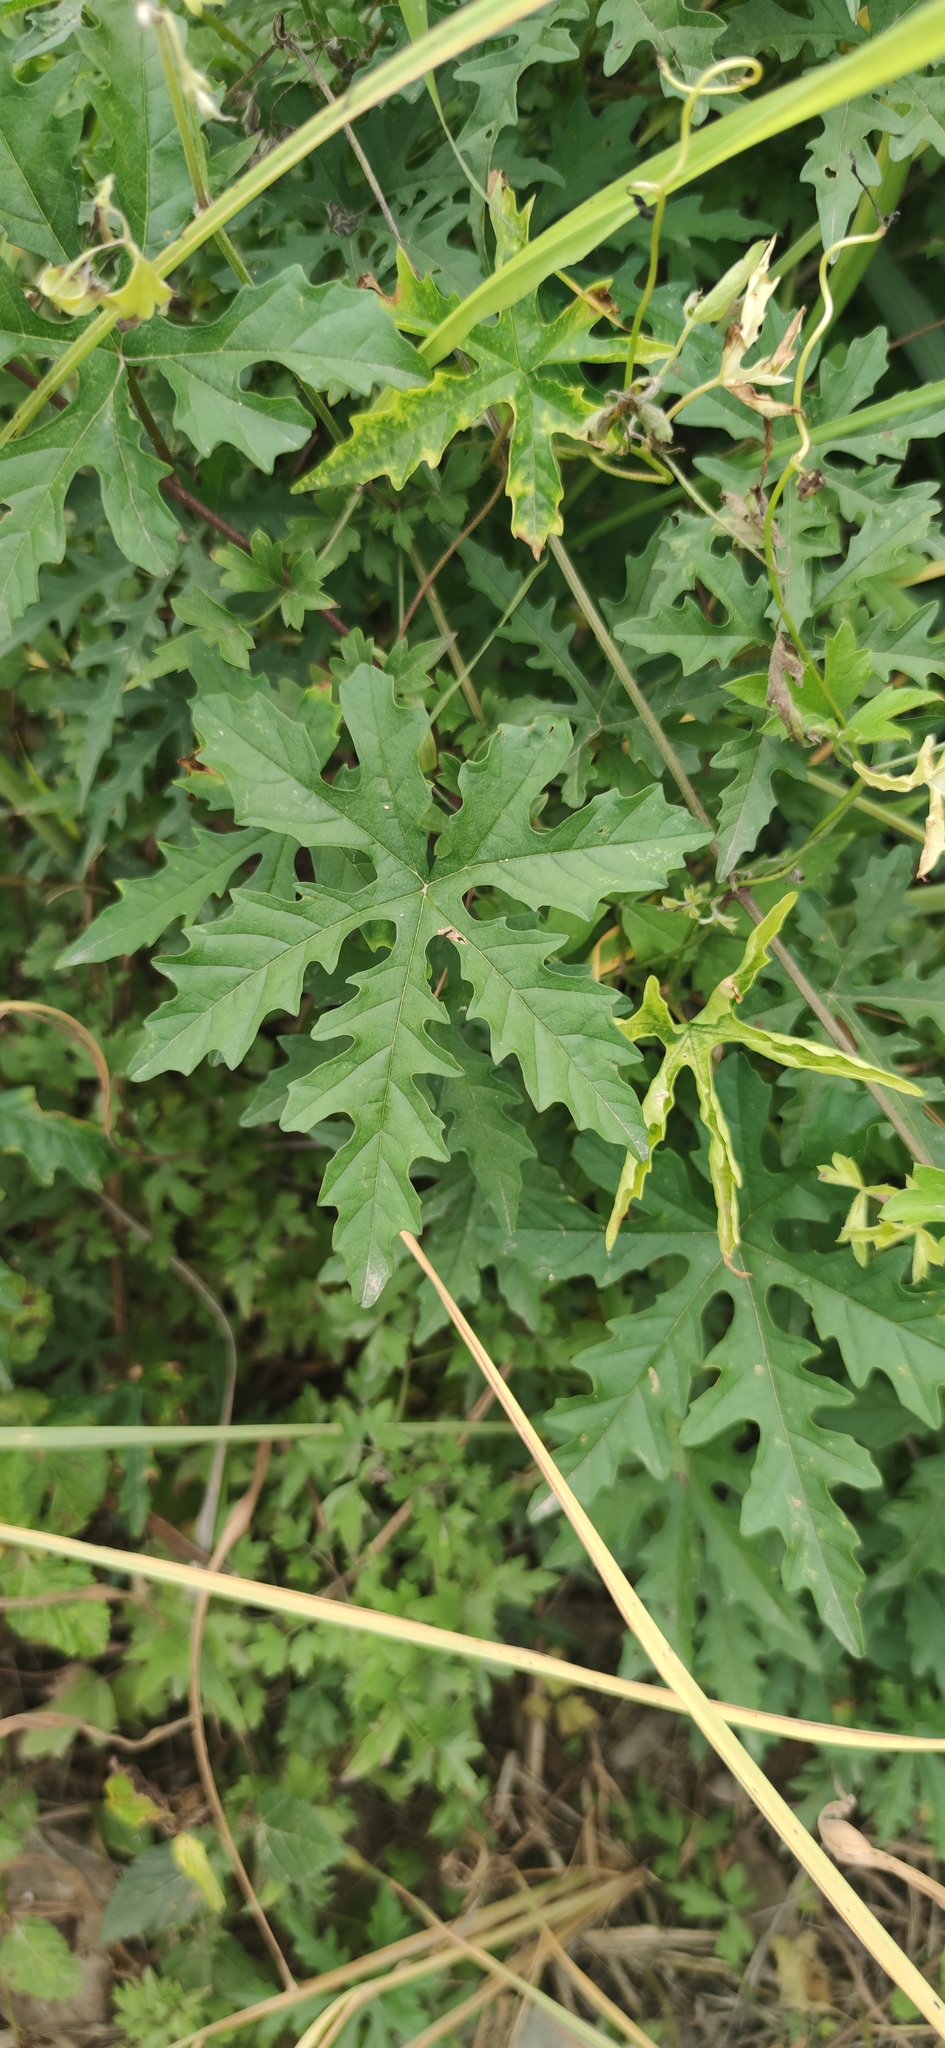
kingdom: Plantae
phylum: Tracheophyta
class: Magnoliopsida
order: Solanales
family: Convolvulaceae
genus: Distimake
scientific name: Distimake dissectus
